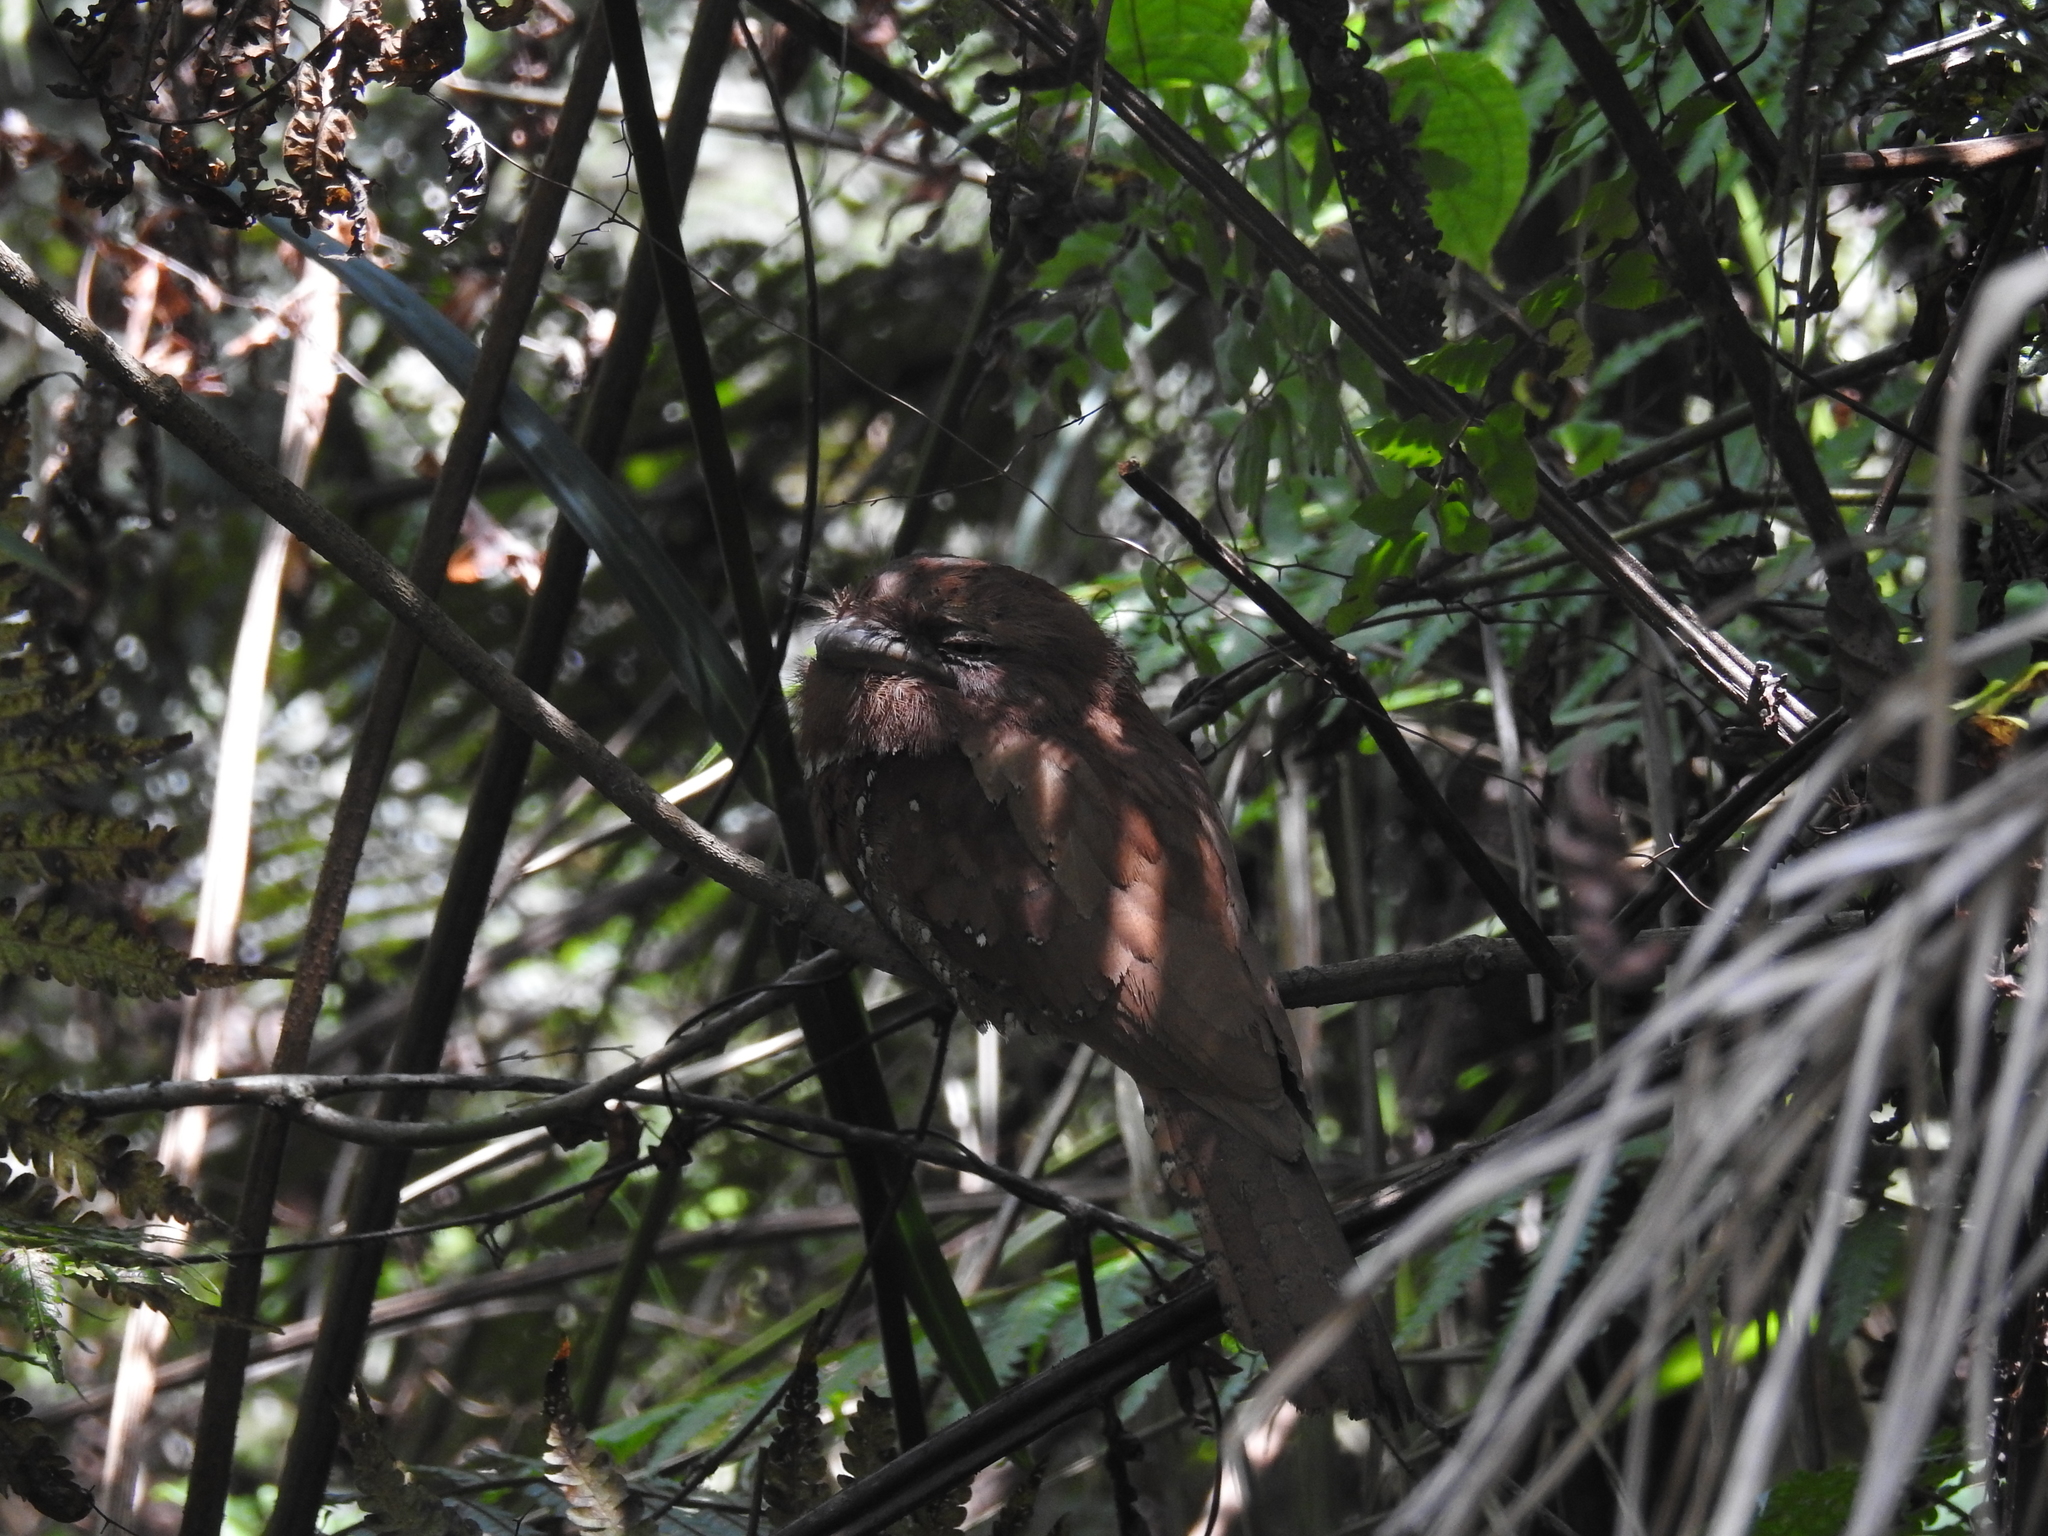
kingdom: Animalia
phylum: Chordata
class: Aves
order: Caprimulgiformes
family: Podargidae
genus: Batrachostomus
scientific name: Batrachostomus moniliger
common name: Sri lanka frogmouth
